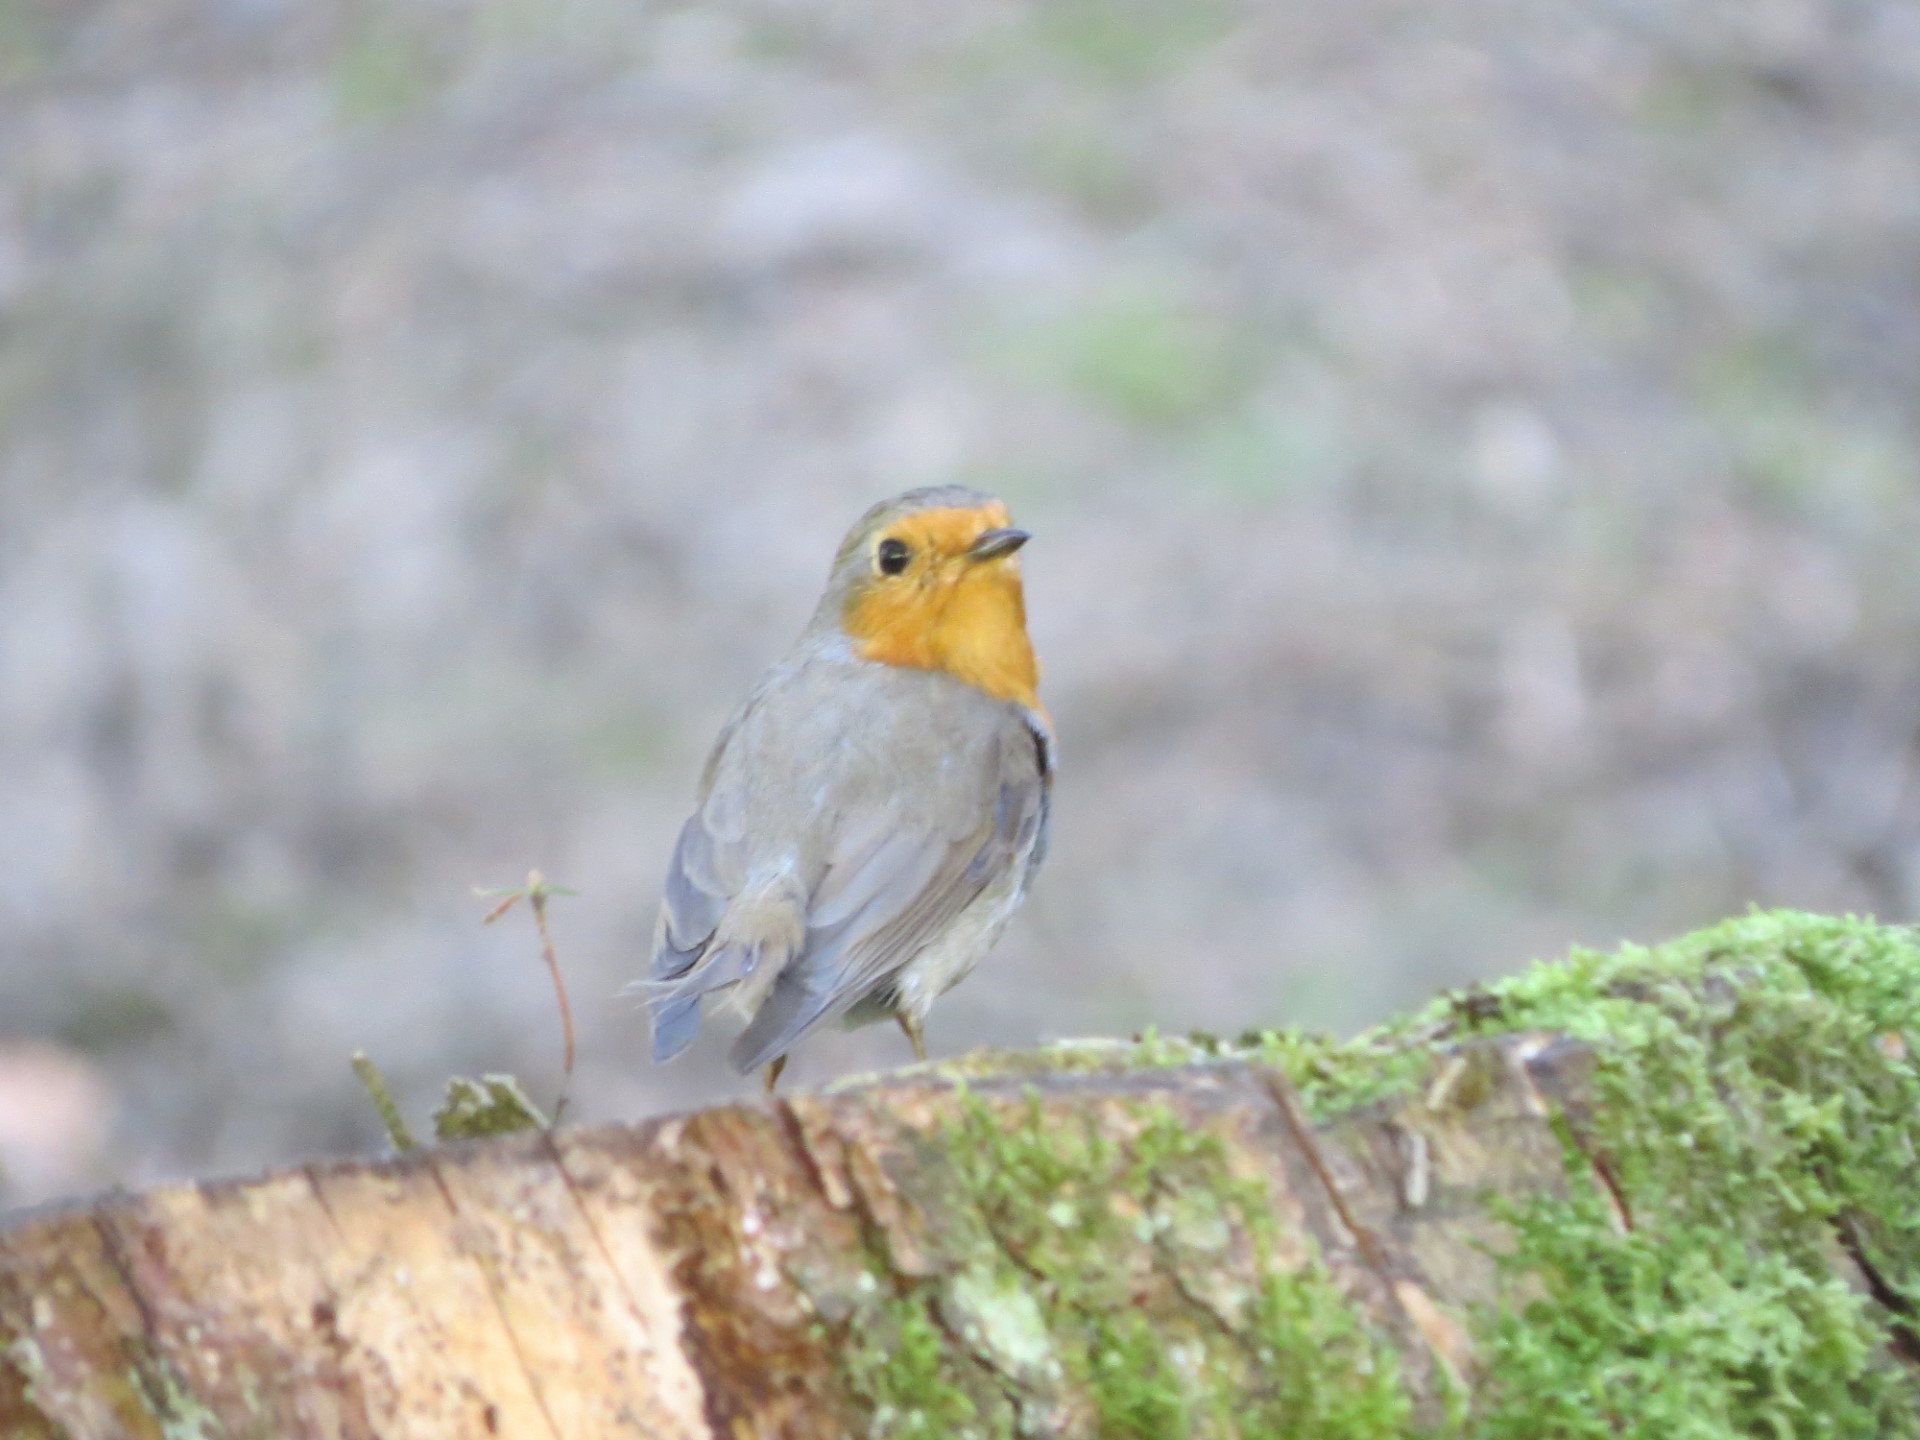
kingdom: Animalia
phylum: Chordata
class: Aves
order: Passeriformes
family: Muscicapidae
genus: Erithacus
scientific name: Erithacus rubecula
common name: European robin
